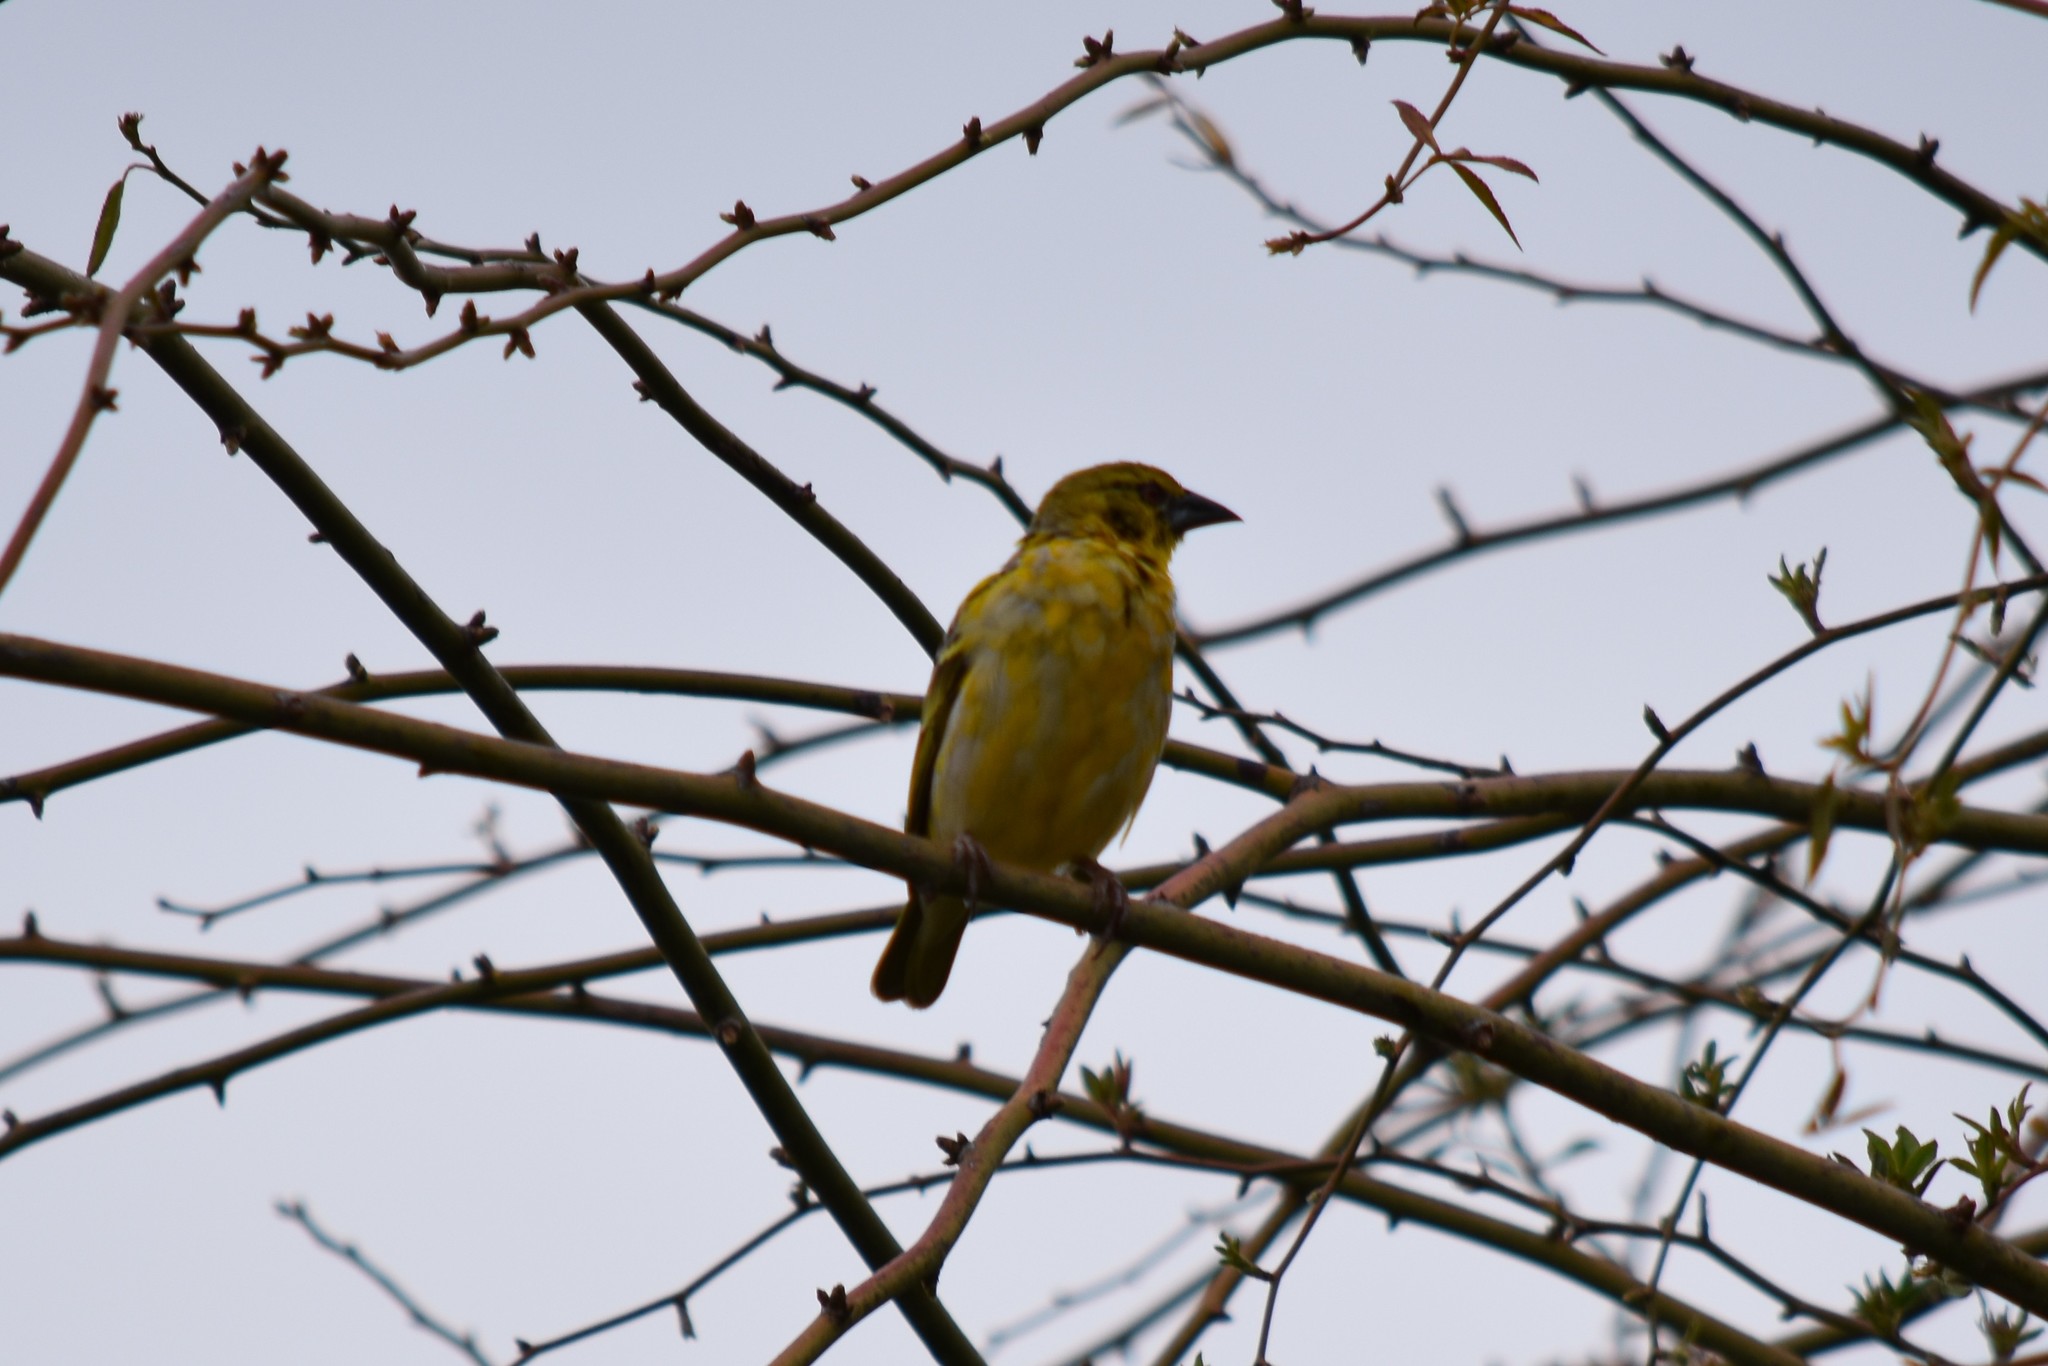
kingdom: Animalia
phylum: Chordata
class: Aves
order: Passeriformes
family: Ploceidae
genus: Ploceus
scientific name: Ploceus cucullatus
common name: Village weaver
